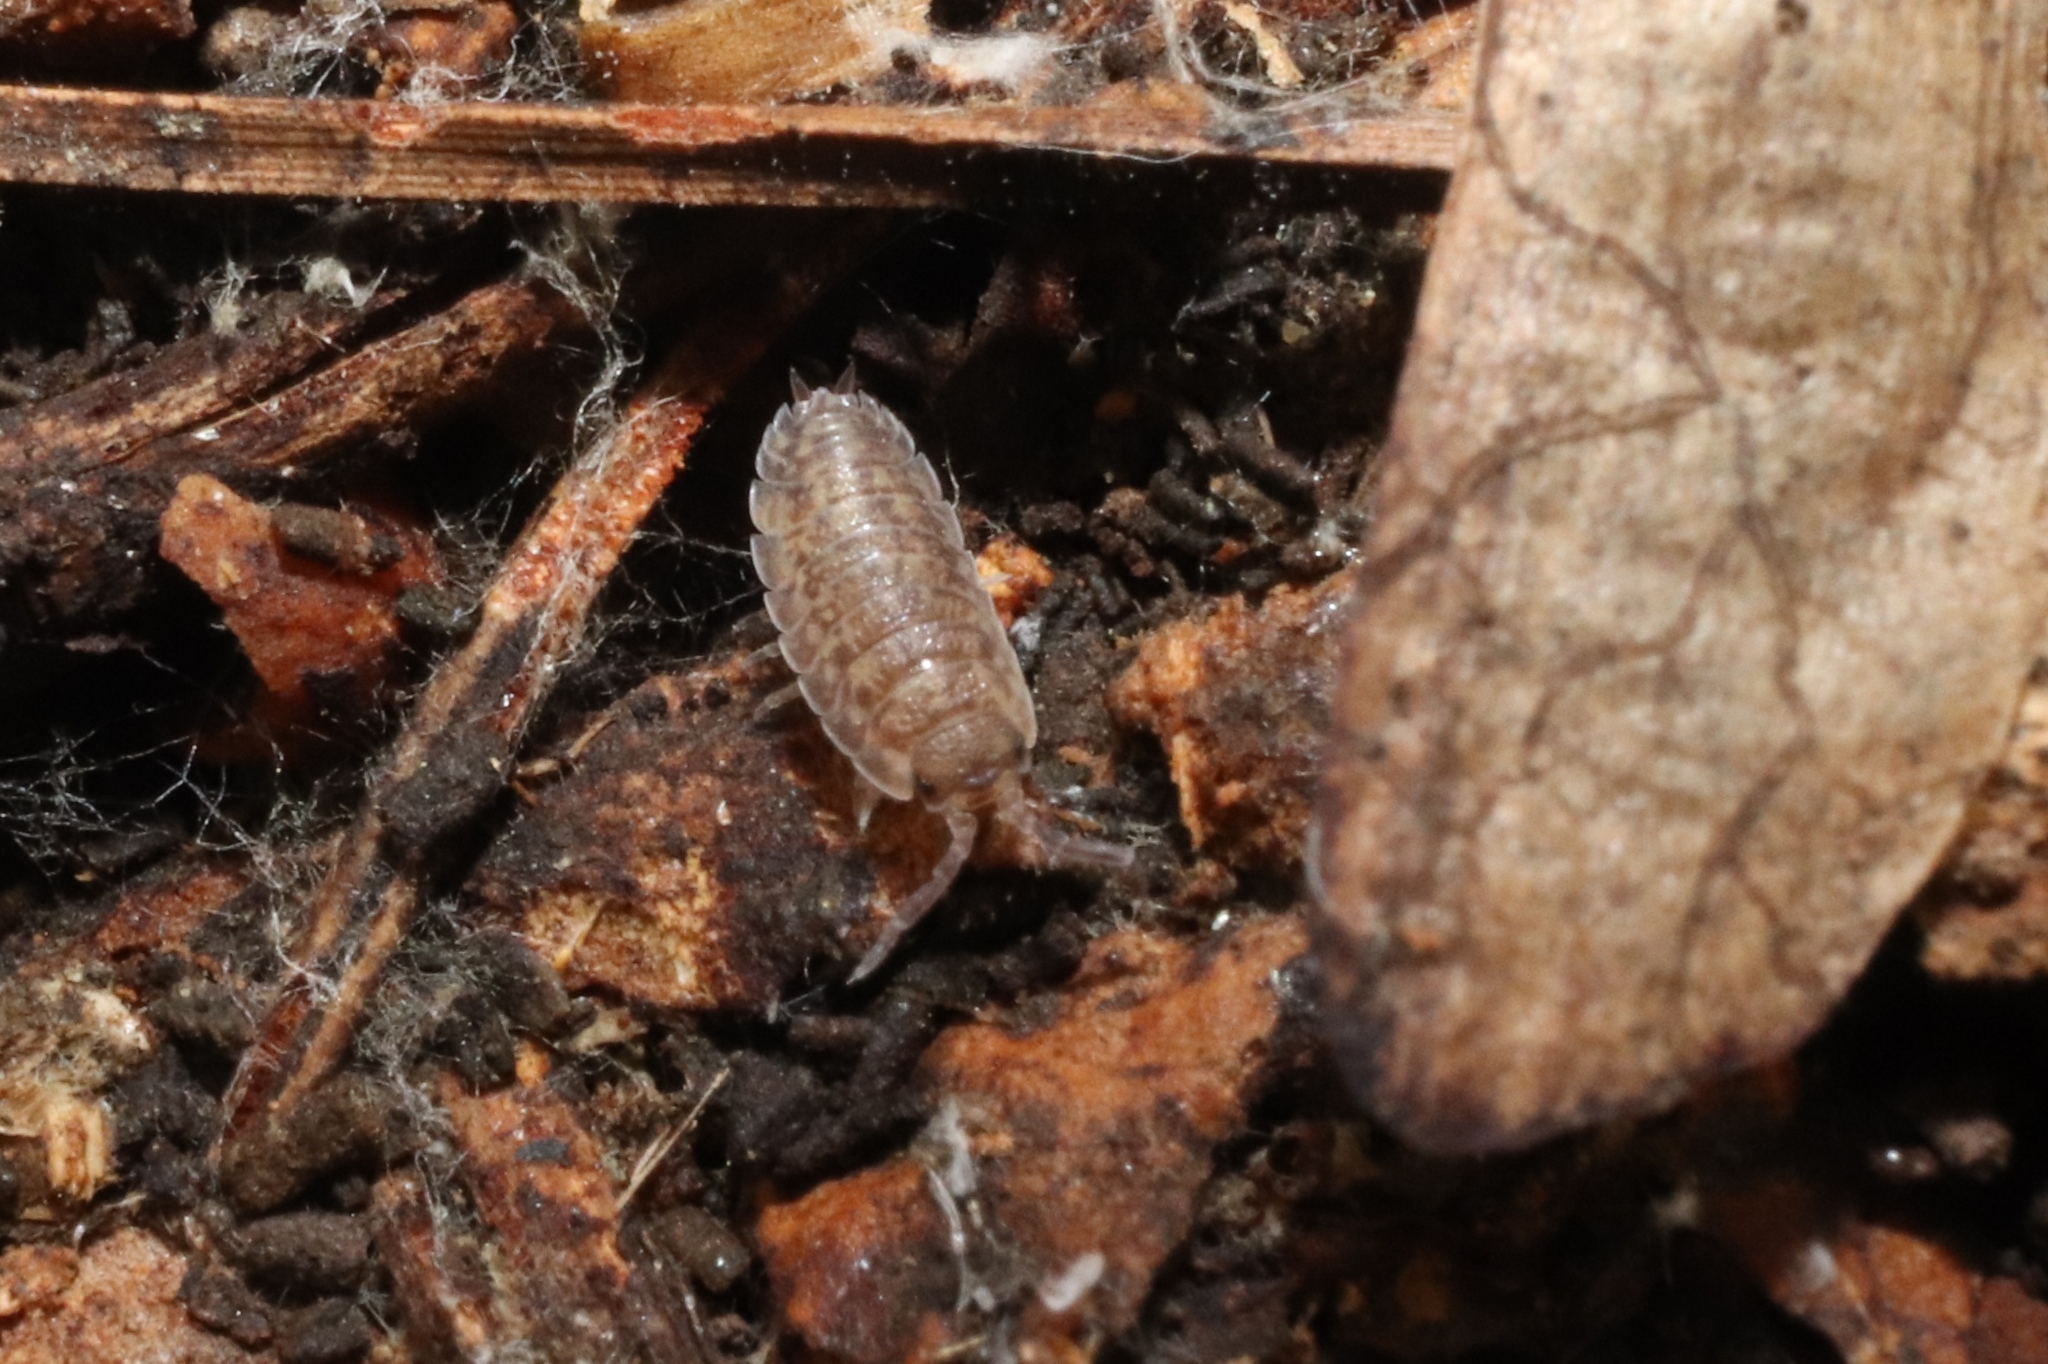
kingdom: Animalia
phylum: Arthropoda
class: Malacostraca
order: Isopoda
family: Porcellionidae
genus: Porcellio
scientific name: Porcellio scaber
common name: Common rough woodlouse
